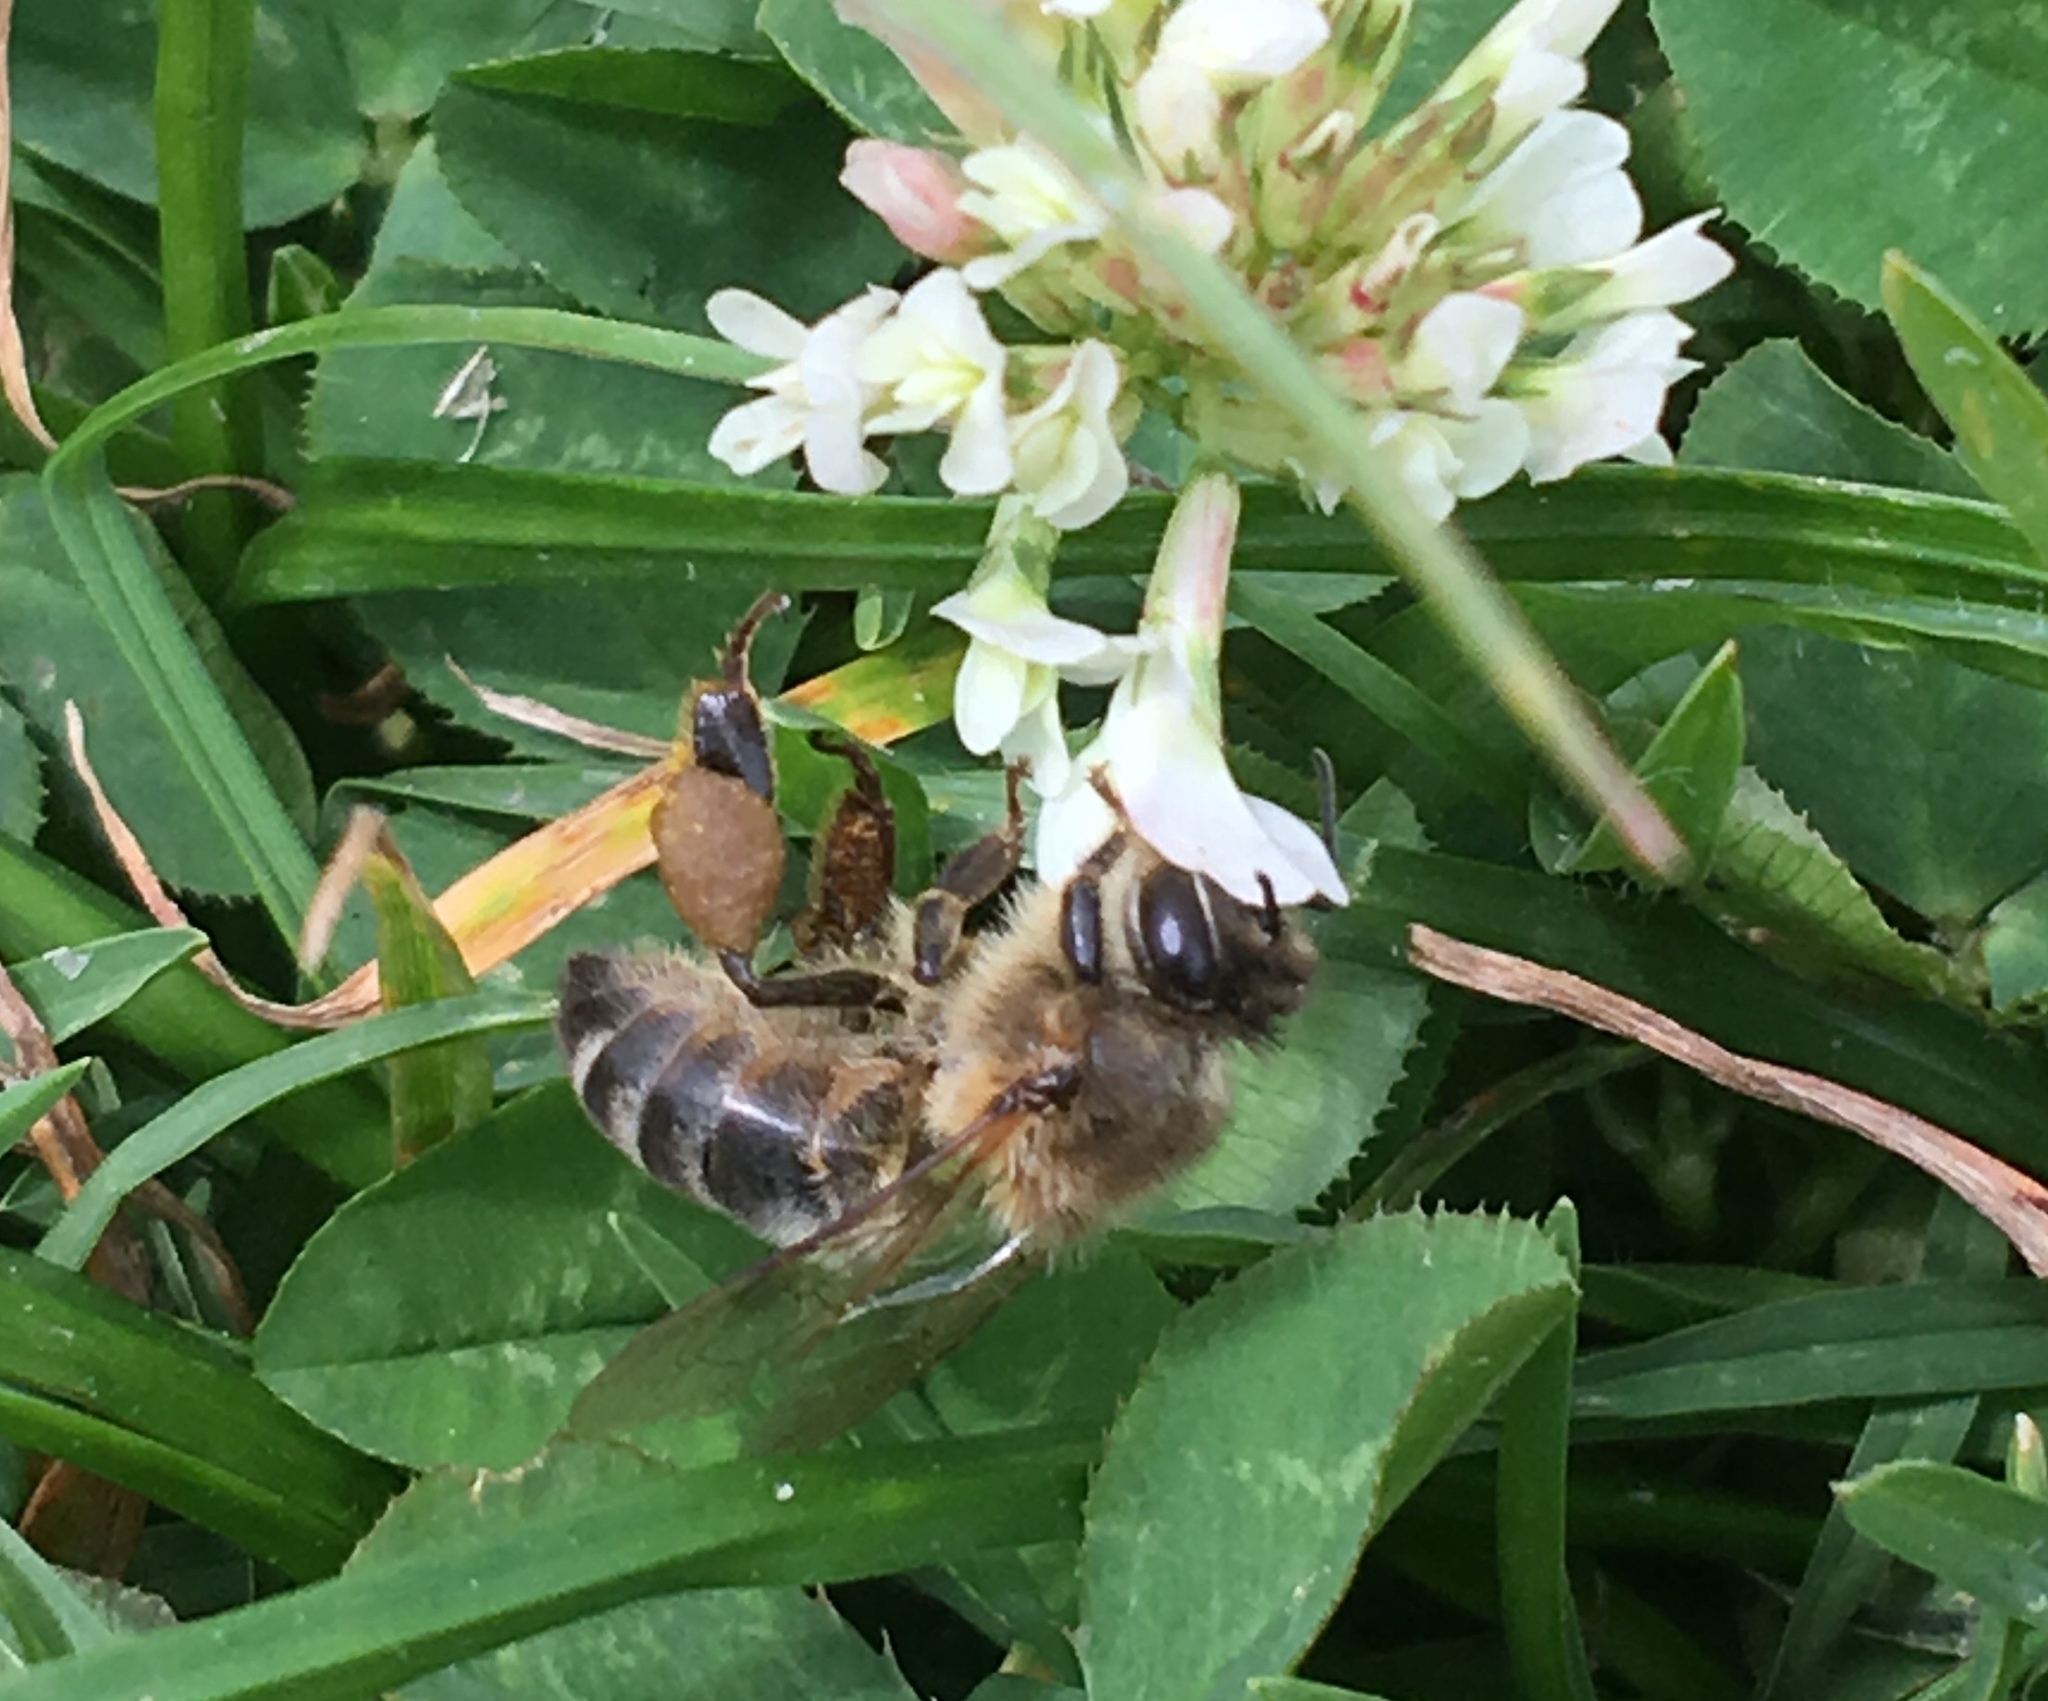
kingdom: Animalia
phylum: Arthropoda
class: Insecta
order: Hymenoptera
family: Apidae
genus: Apis
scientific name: Apis mellifera
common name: Honey bee
